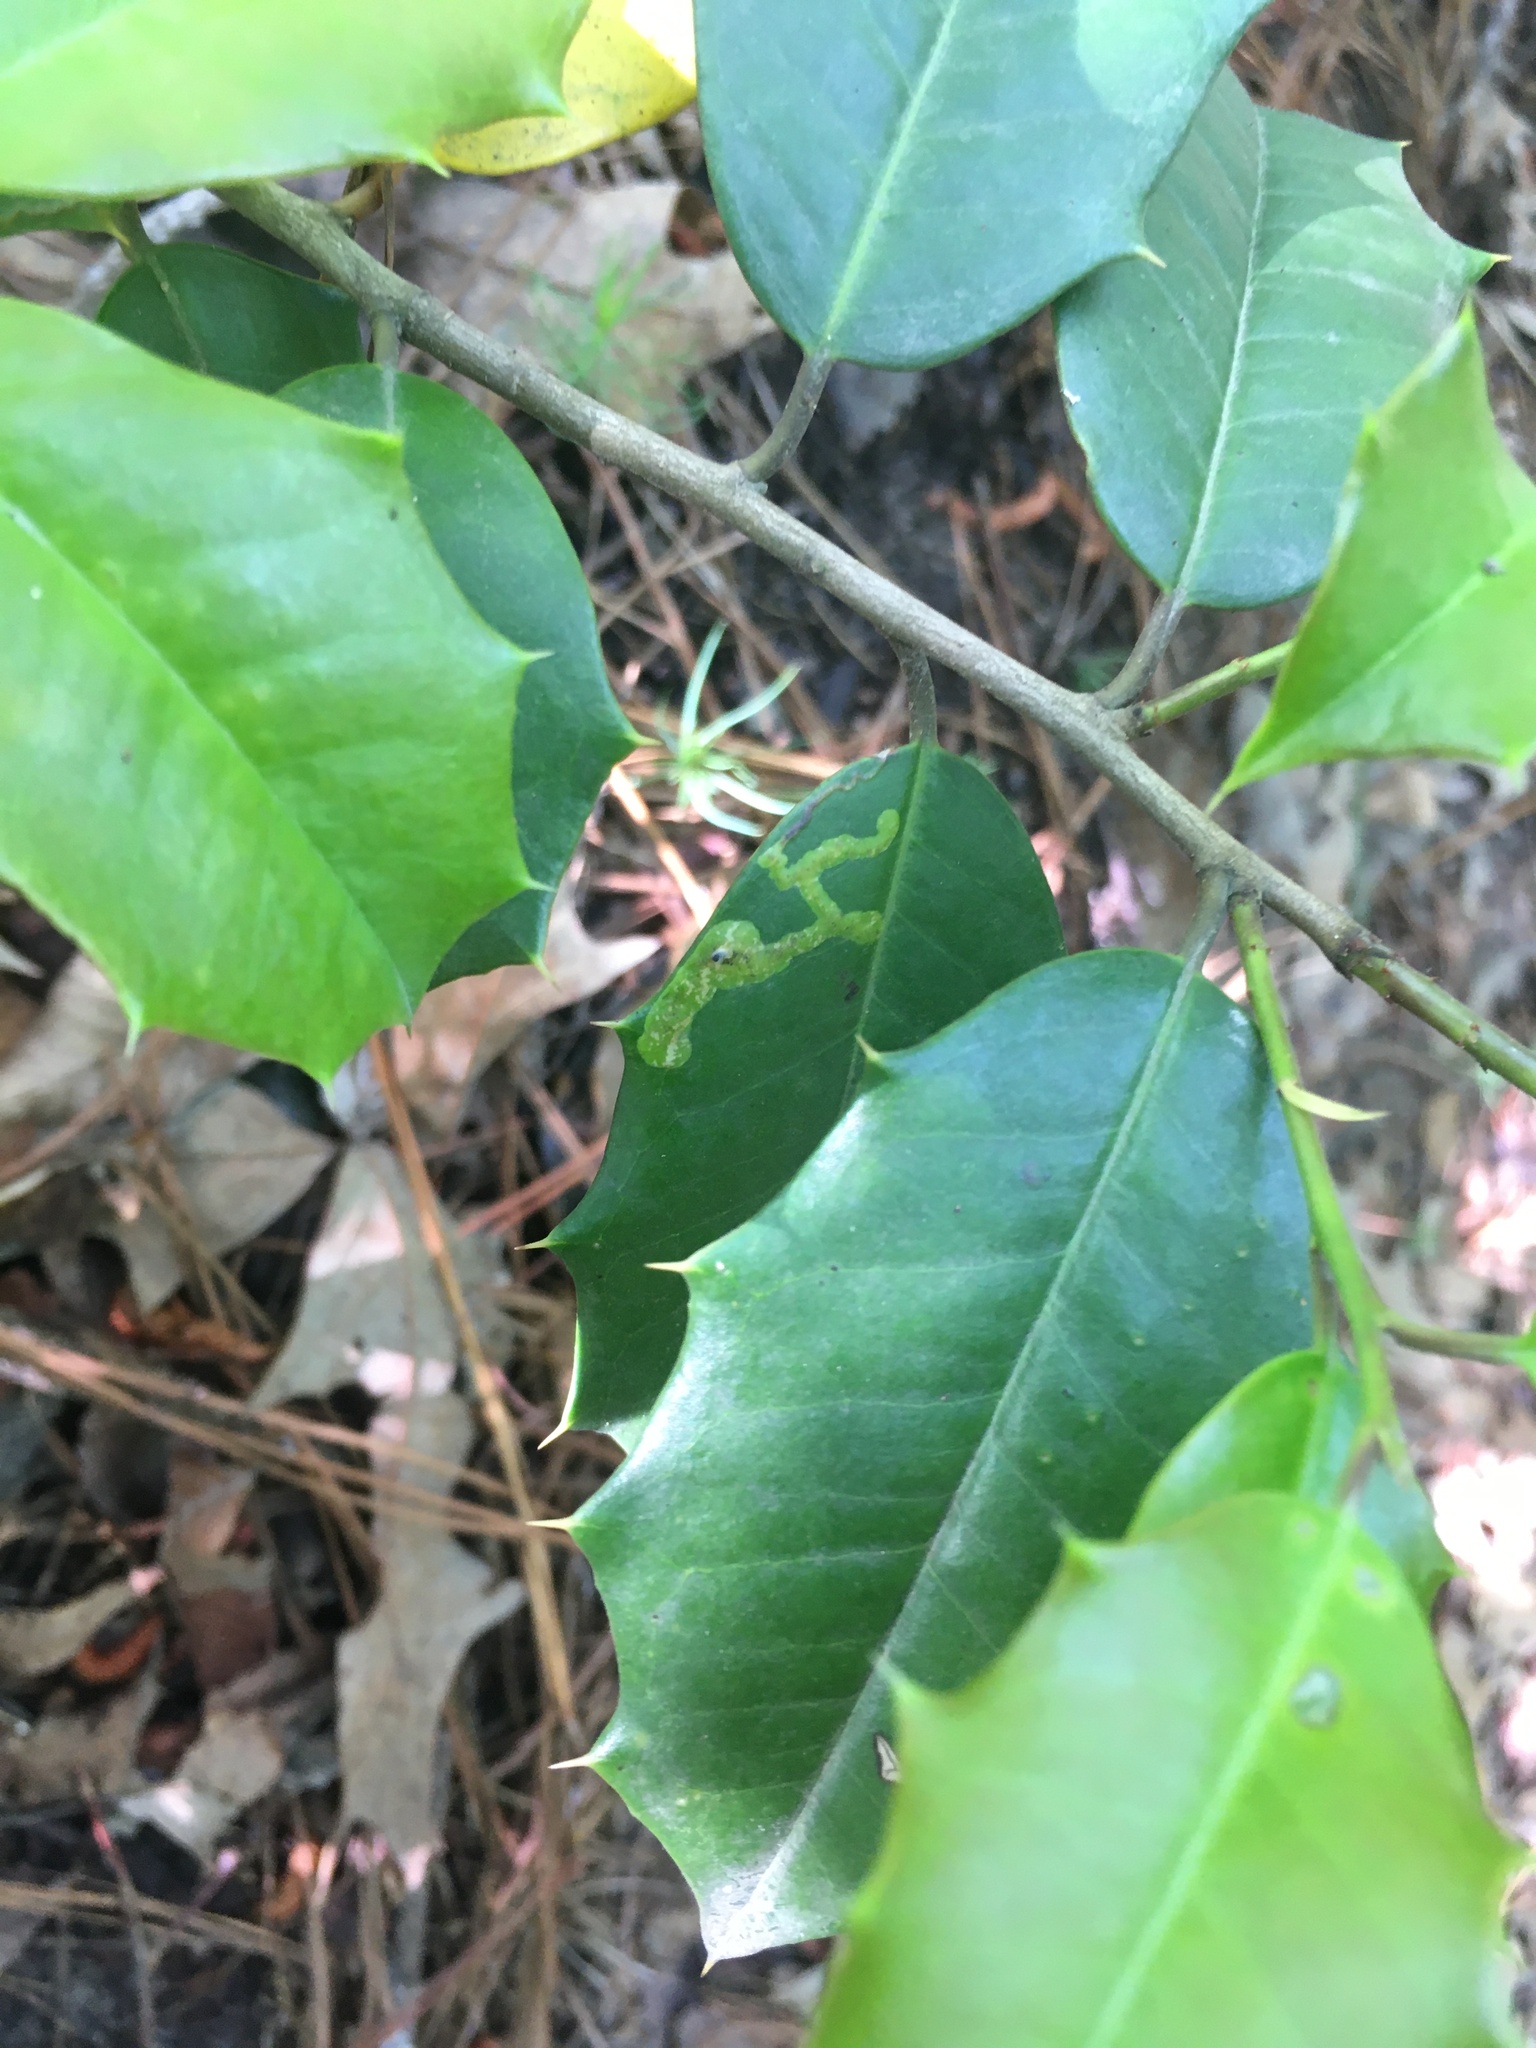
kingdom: Animalia
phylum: Arthropoda
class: Insecta
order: Diptera
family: Agromyzidae
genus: Phytomyza
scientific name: Phytomyza ilicicola
